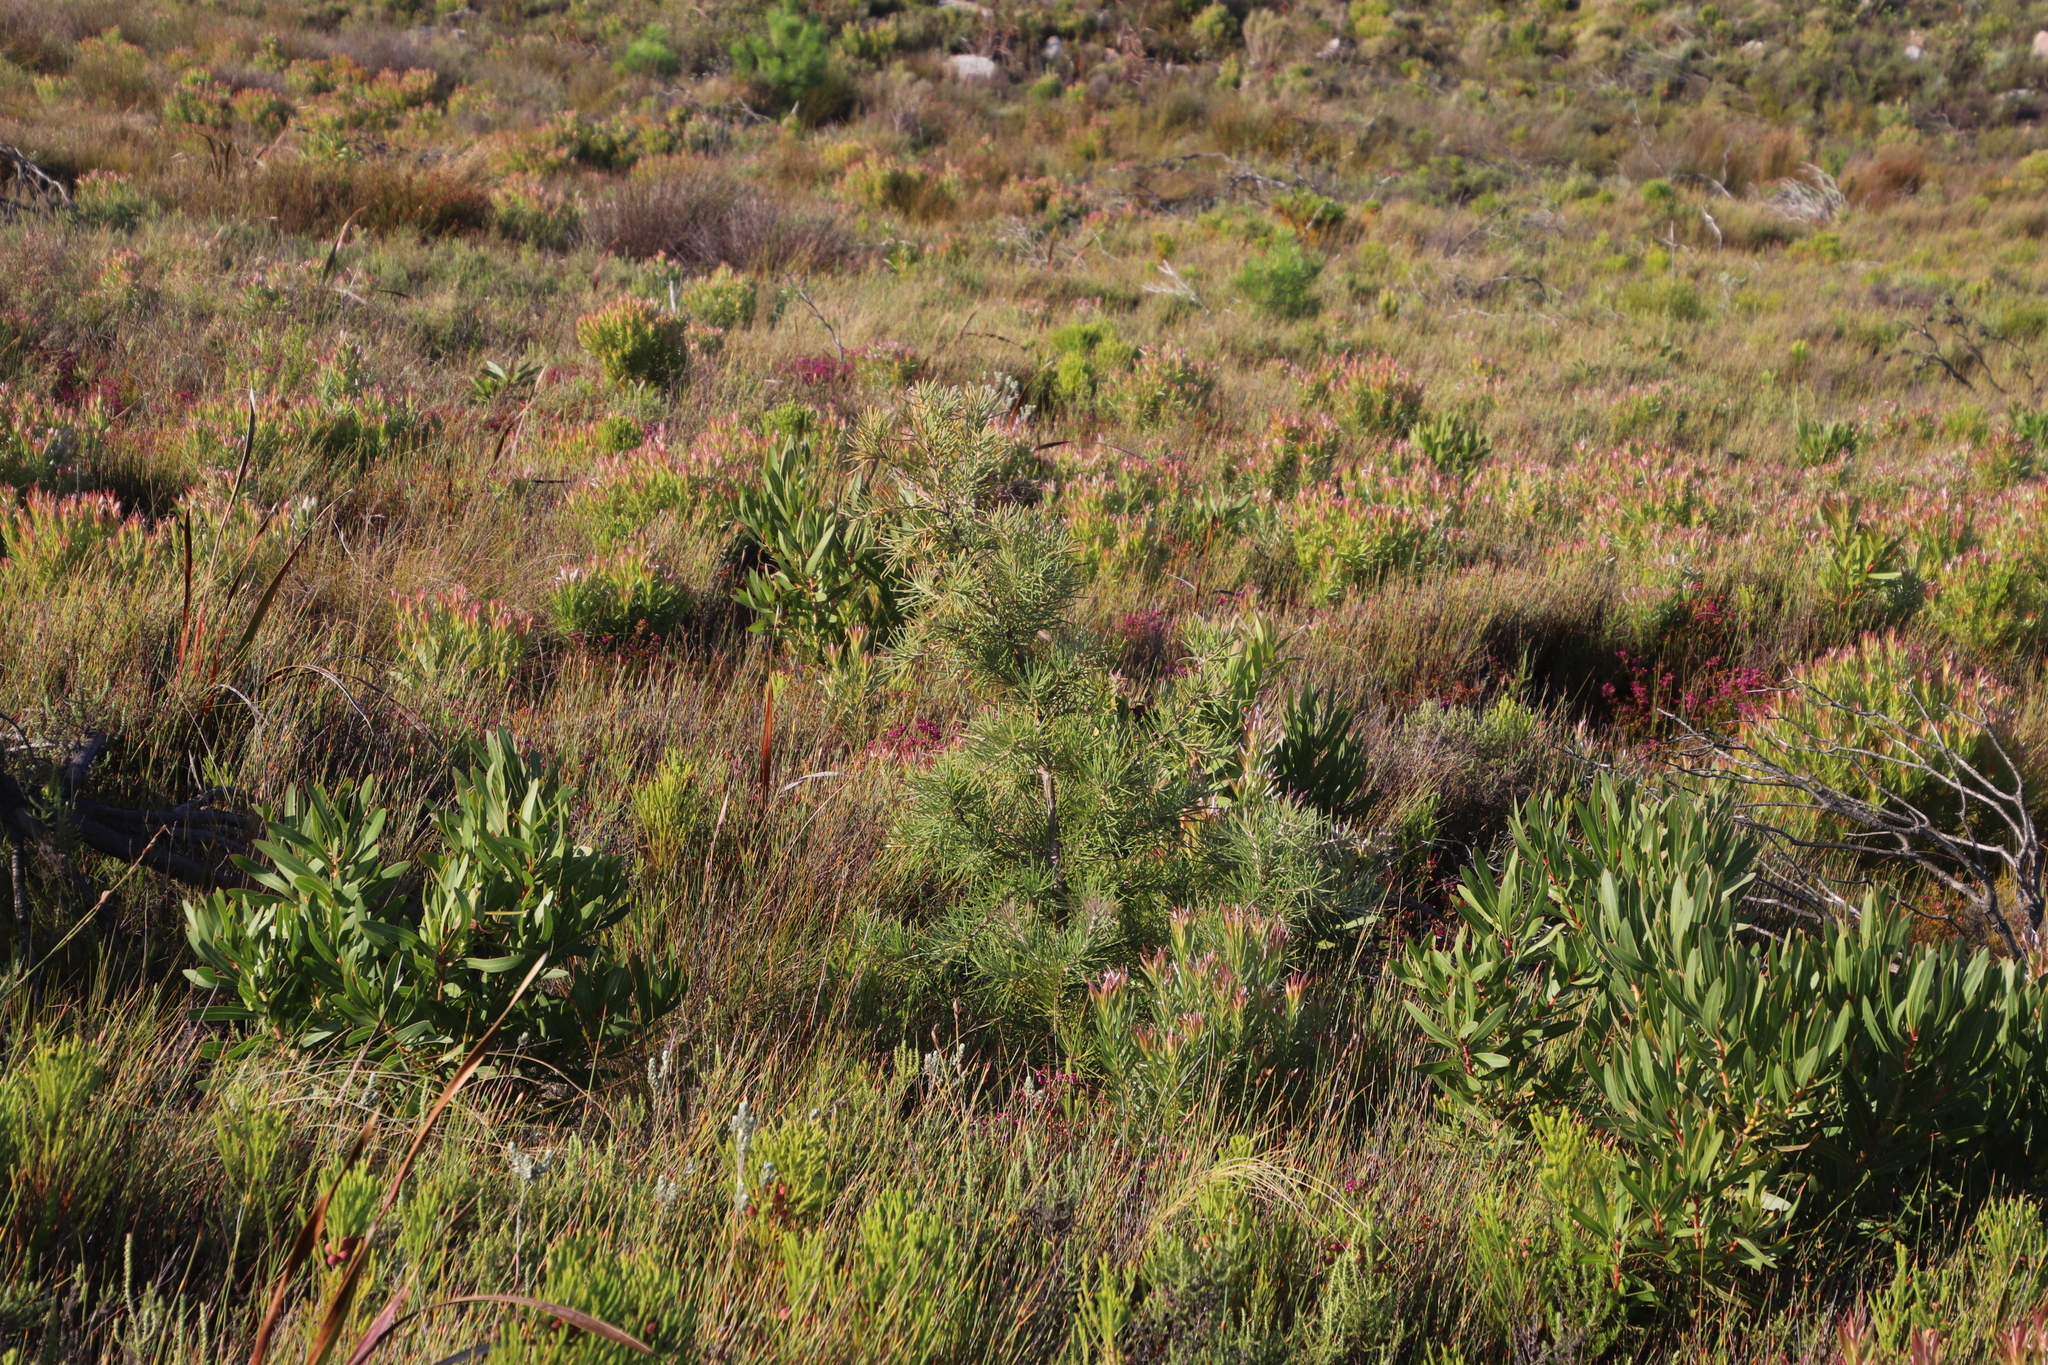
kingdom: Plantae
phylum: Tracheophyta
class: Magnoliopsida
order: Proteales
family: Proteaceae
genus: Hakea
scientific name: Hakea gibbosa
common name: Rock hakea
